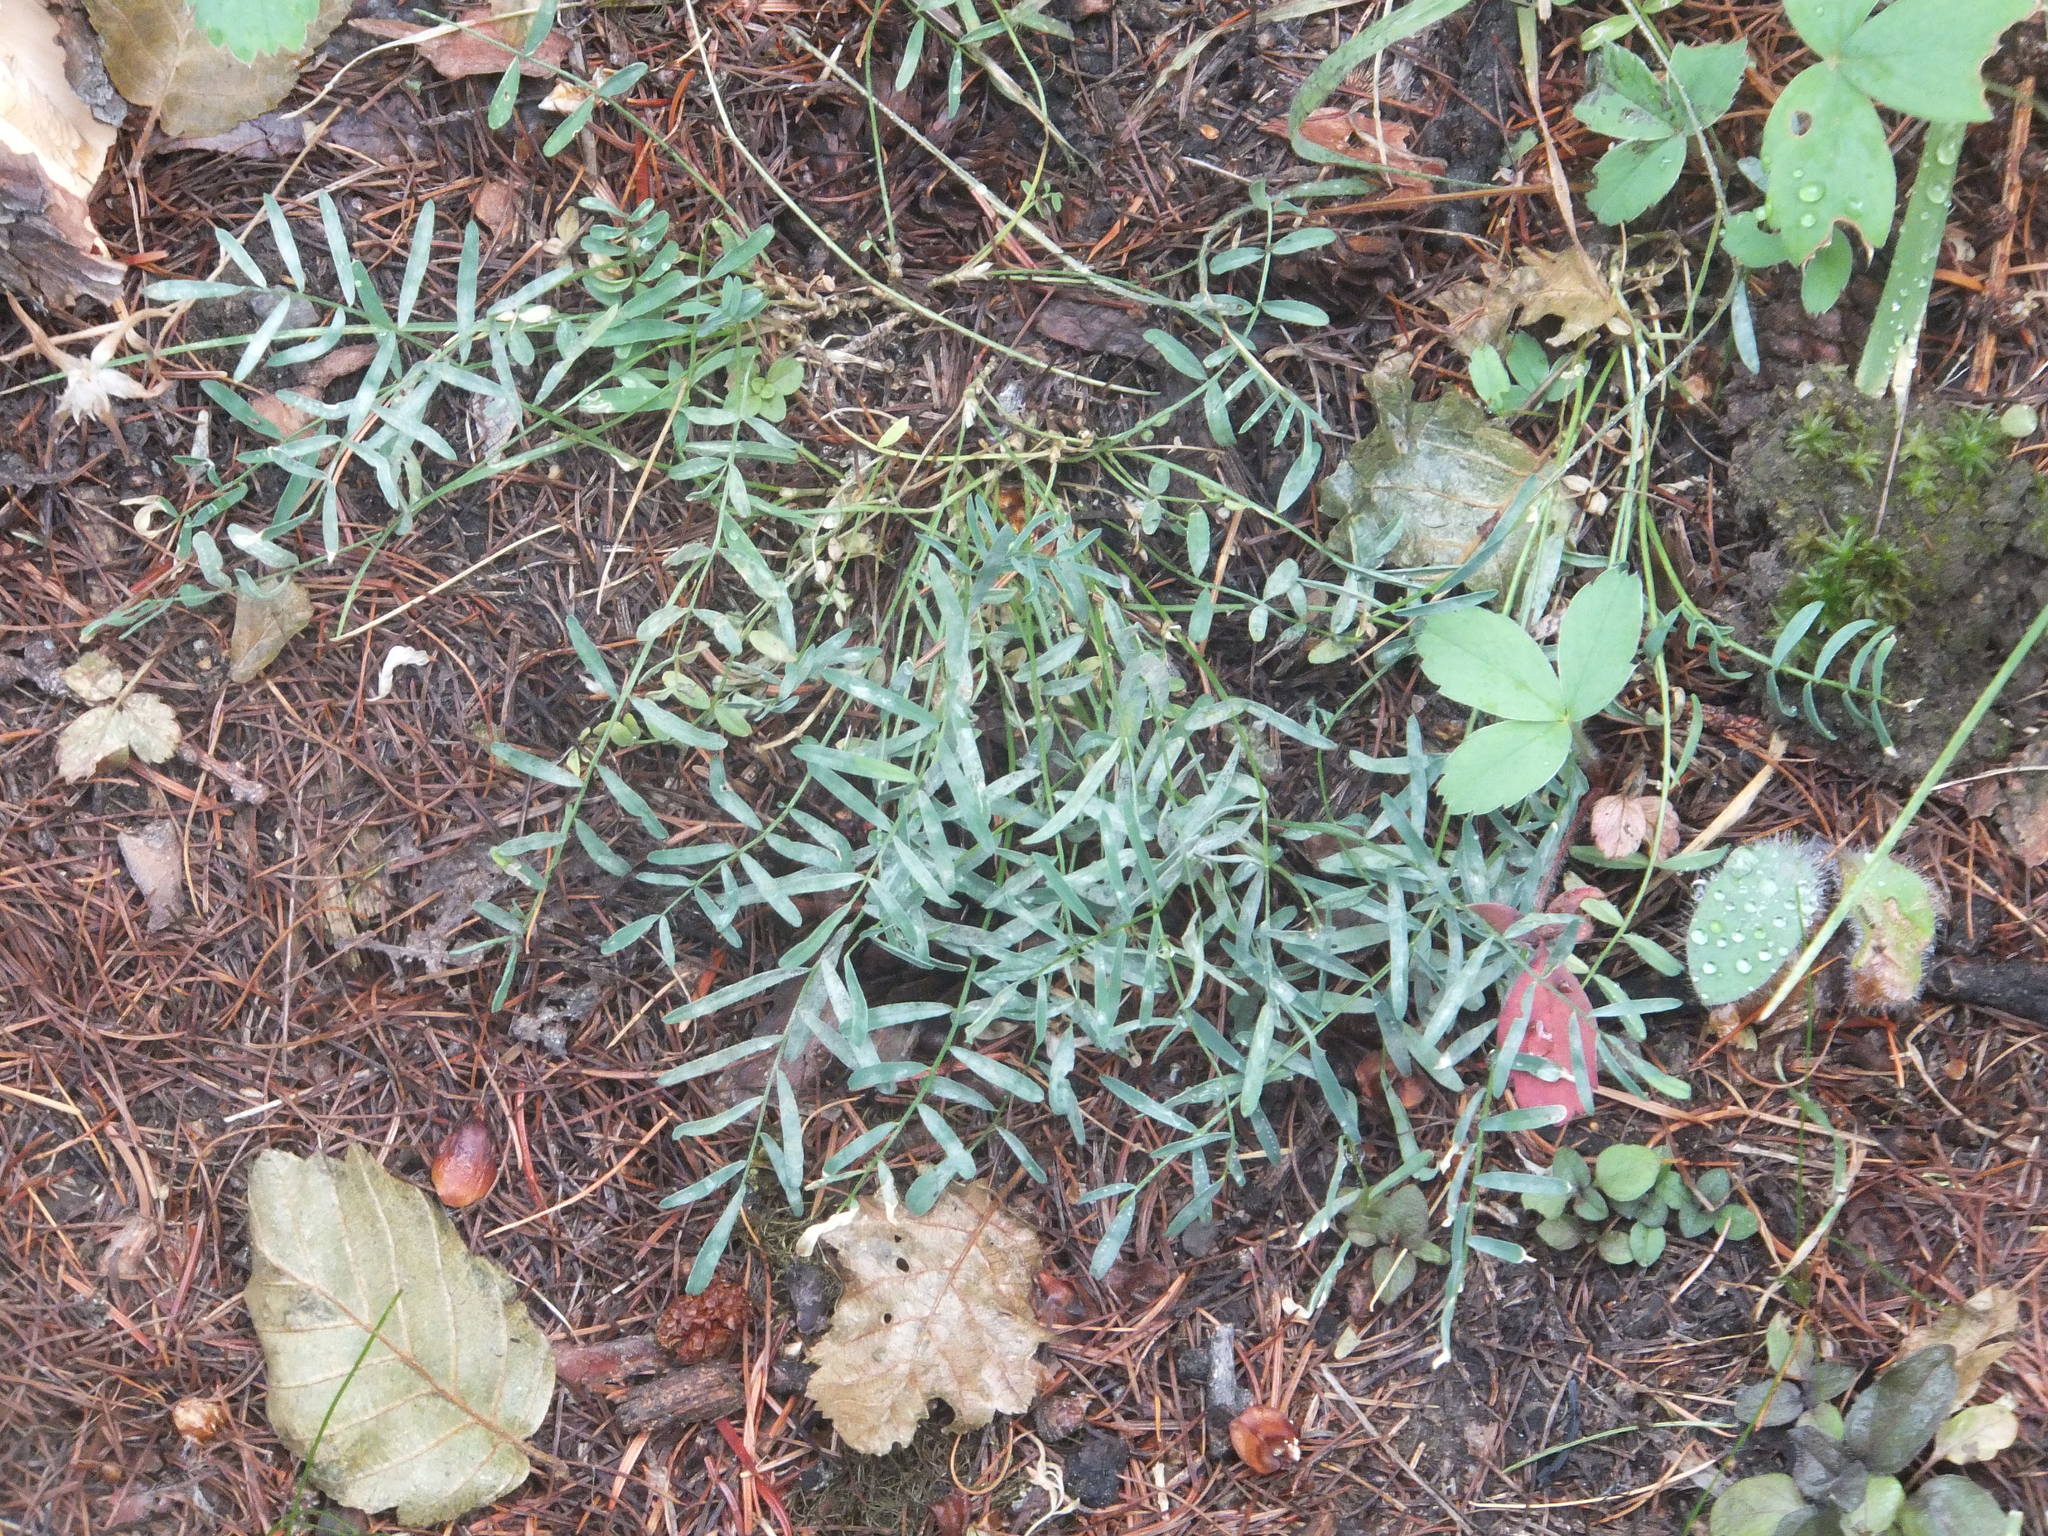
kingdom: Plantae
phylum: Tracheophyta
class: Magnoliopsida
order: Fabales
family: Fabaceae
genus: Astragalus
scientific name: Astragalus miser
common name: Timber milkvetch
